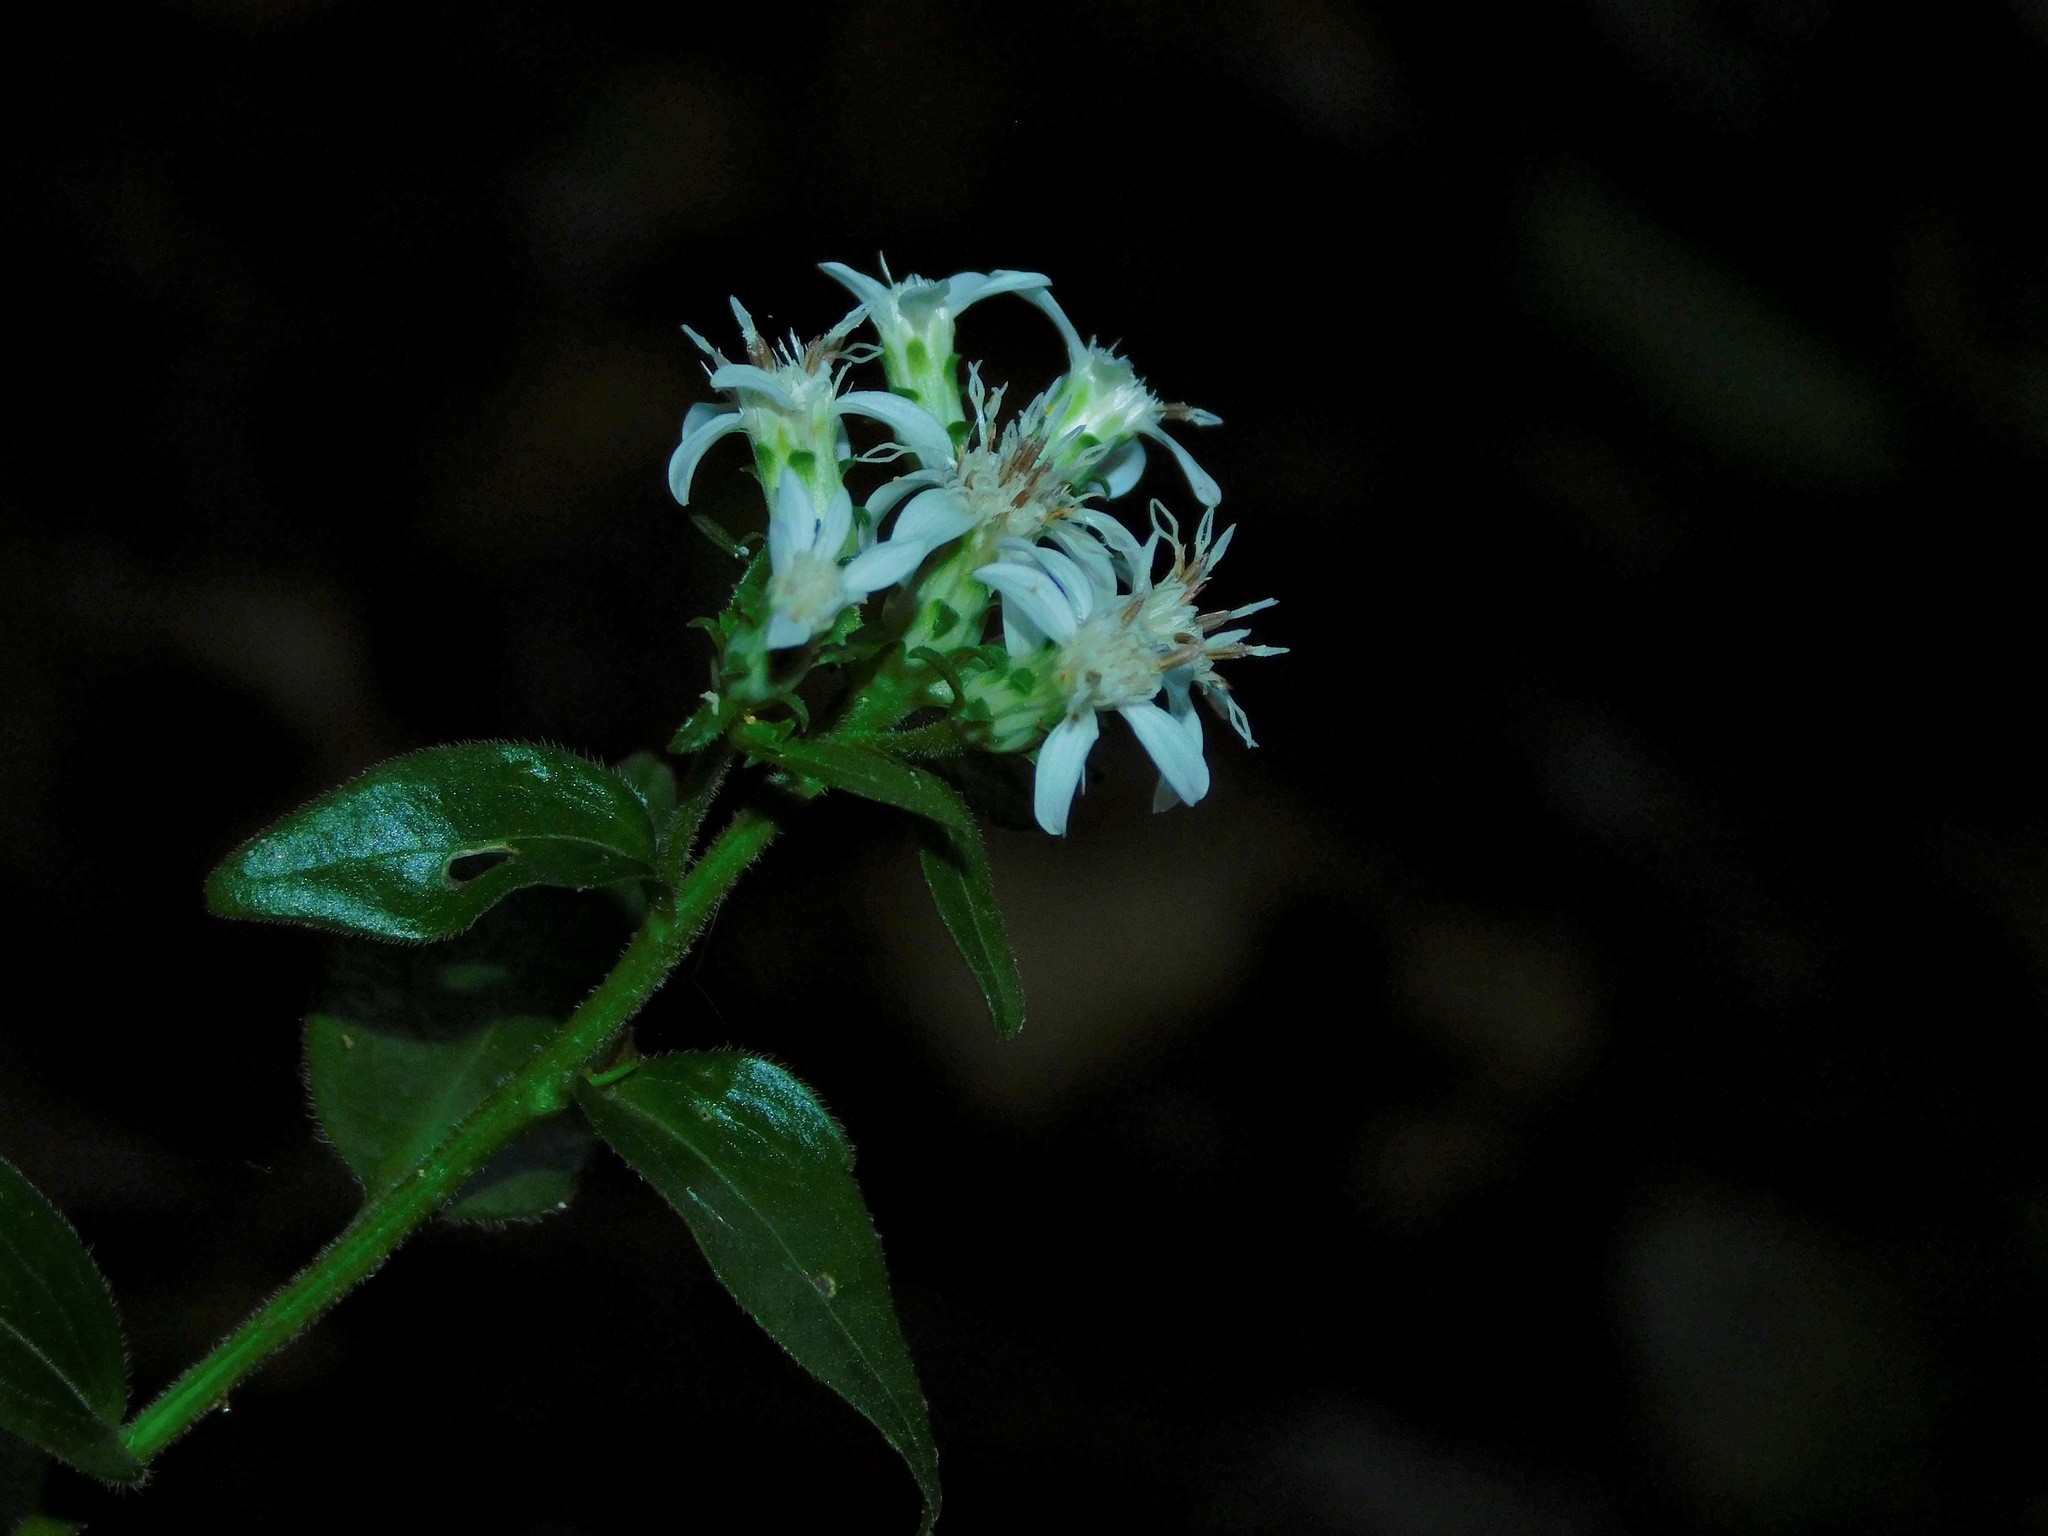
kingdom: Plantae
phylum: Tracheophyta
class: Magnoliopsida
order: Asterales
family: Asteraceae
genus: Sericocarpus
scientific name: Sericocarpus asteroides
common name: Toothed white-top aster
